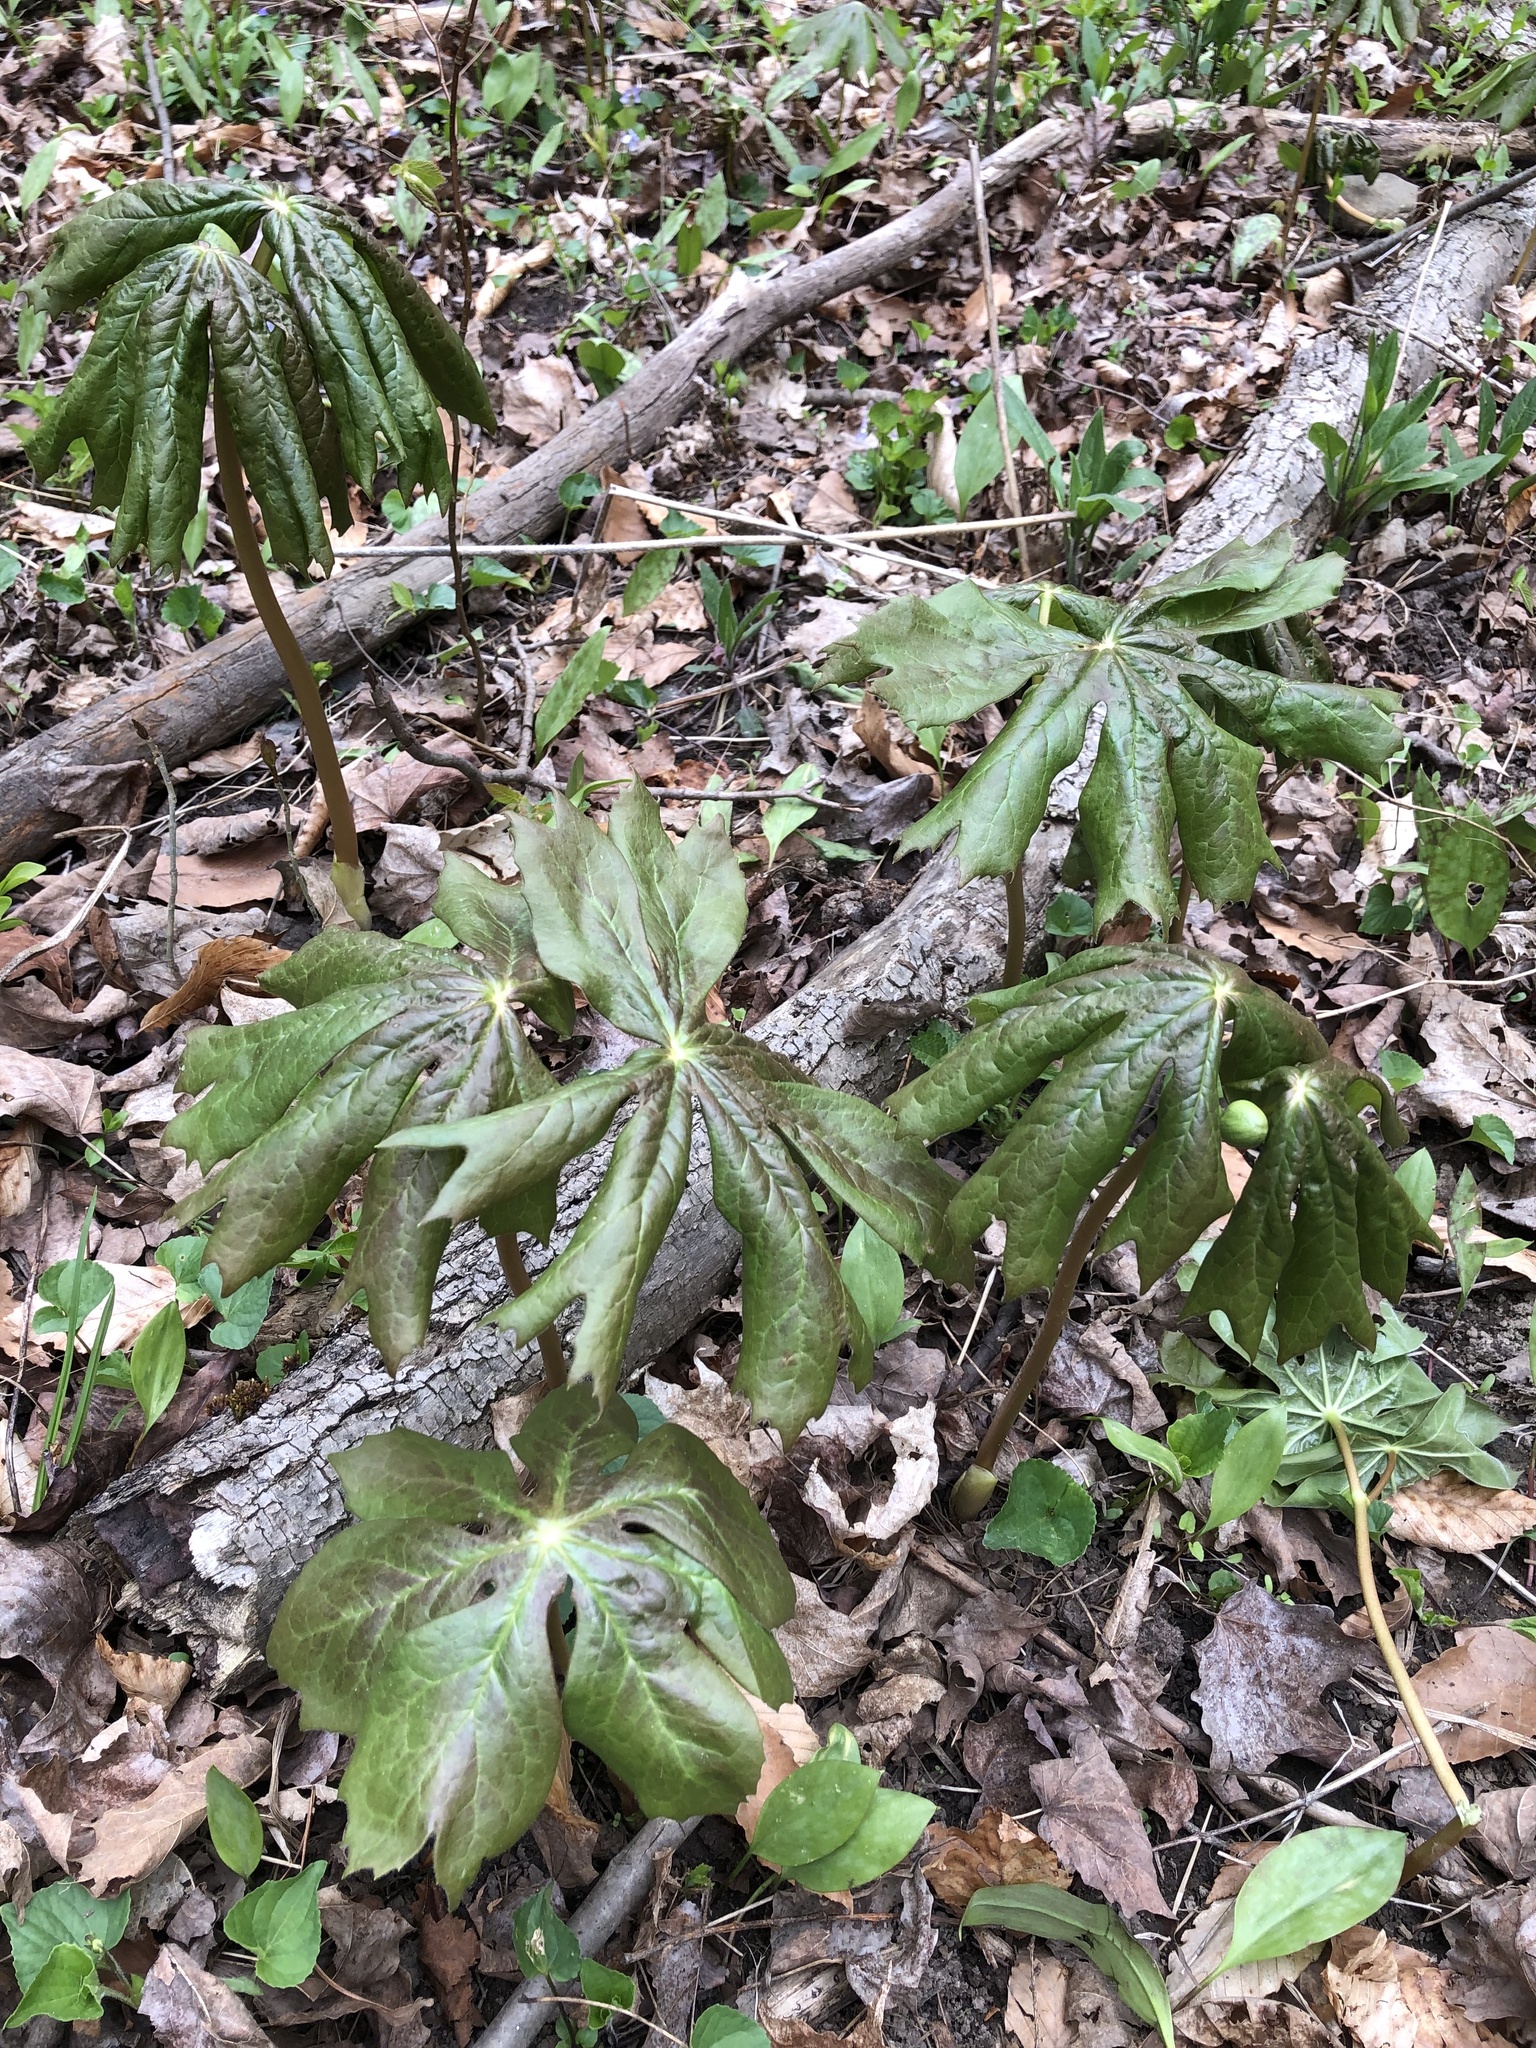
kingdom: Plantae
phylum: Tracheophyta
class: Magnoliopsida
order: Ranunculales
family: Berberidaceae
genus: Podophyllum
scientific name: Podophyllum peltatum
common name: Wild mandrake
